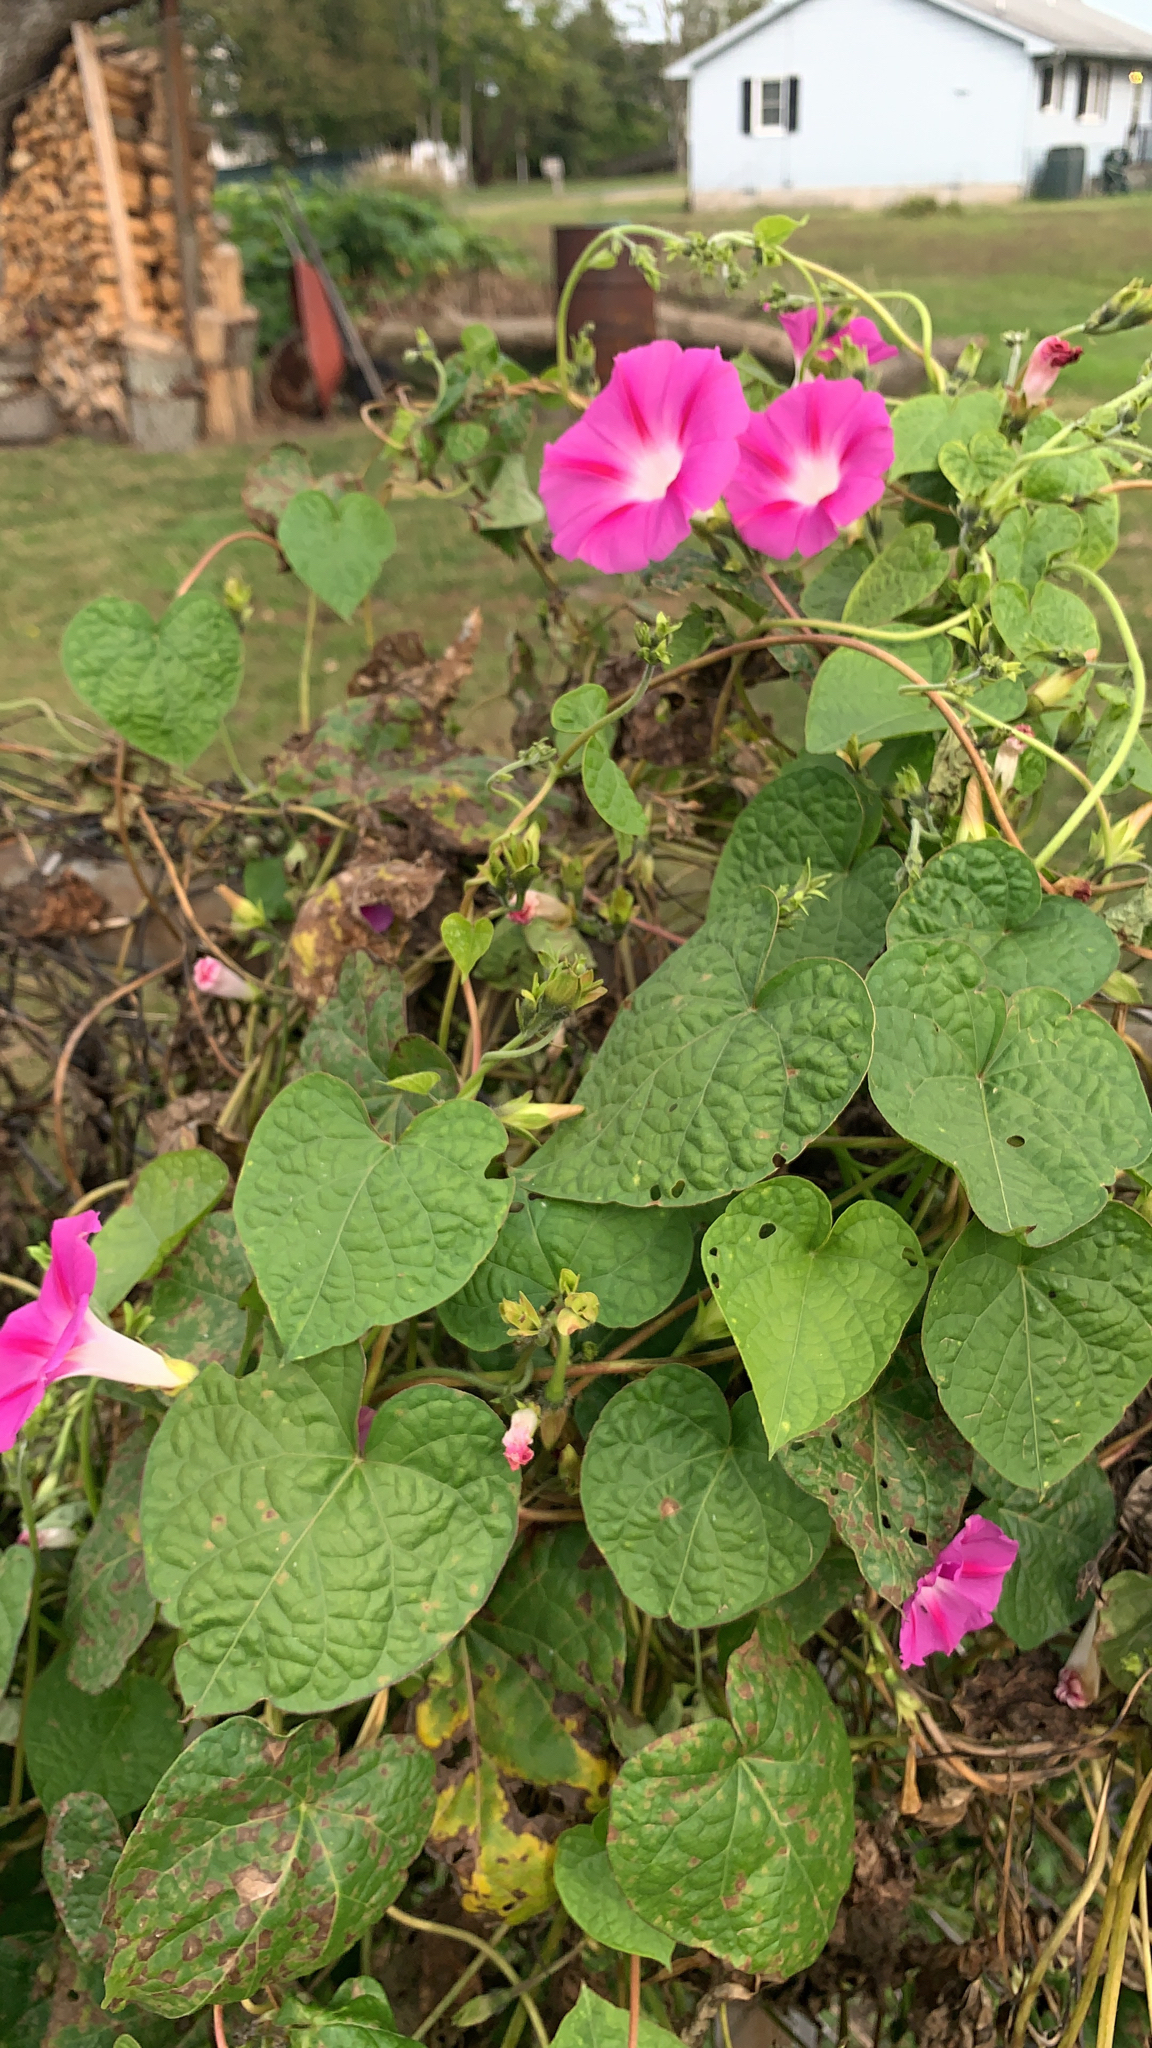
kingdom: Plantae
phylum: Tracheophyta
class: Magnoliopsida
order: Solanales
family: Convolvulaceae
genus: Ipomoea
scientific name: Ipomoea purpurea
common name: Common morning-glory
